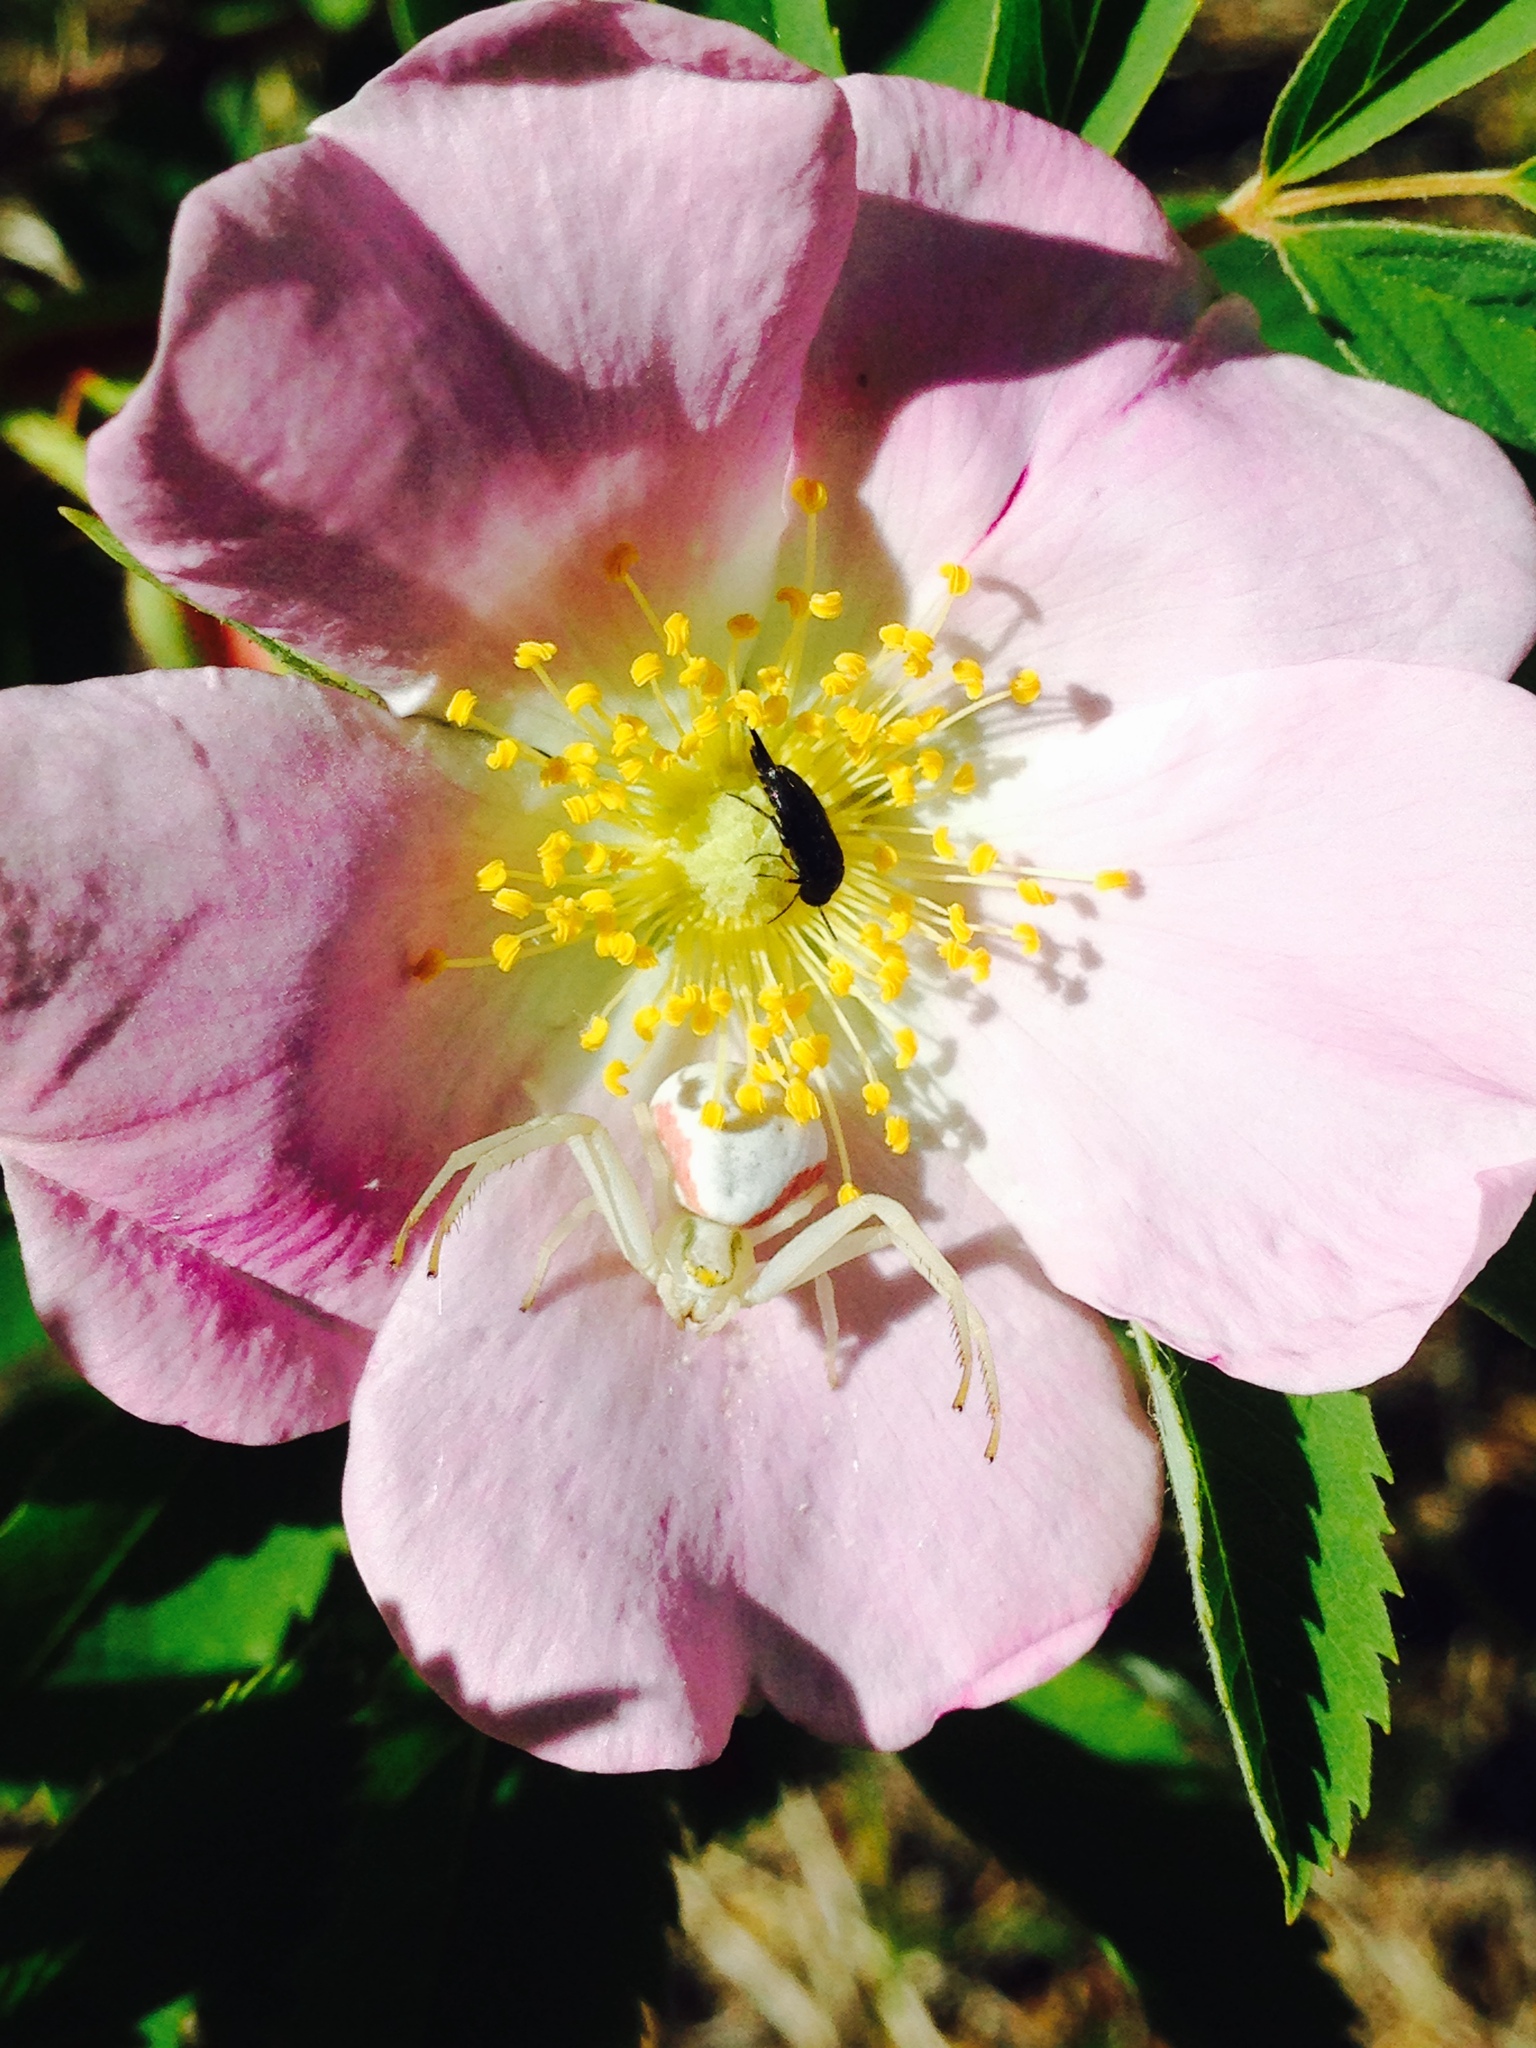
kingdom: Animalia
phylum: Arthropoda
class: Arachnida
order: Araneae
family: Thomisidae
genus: Misumena
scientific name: Misumena vatia
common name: Goldenrod crab spider
